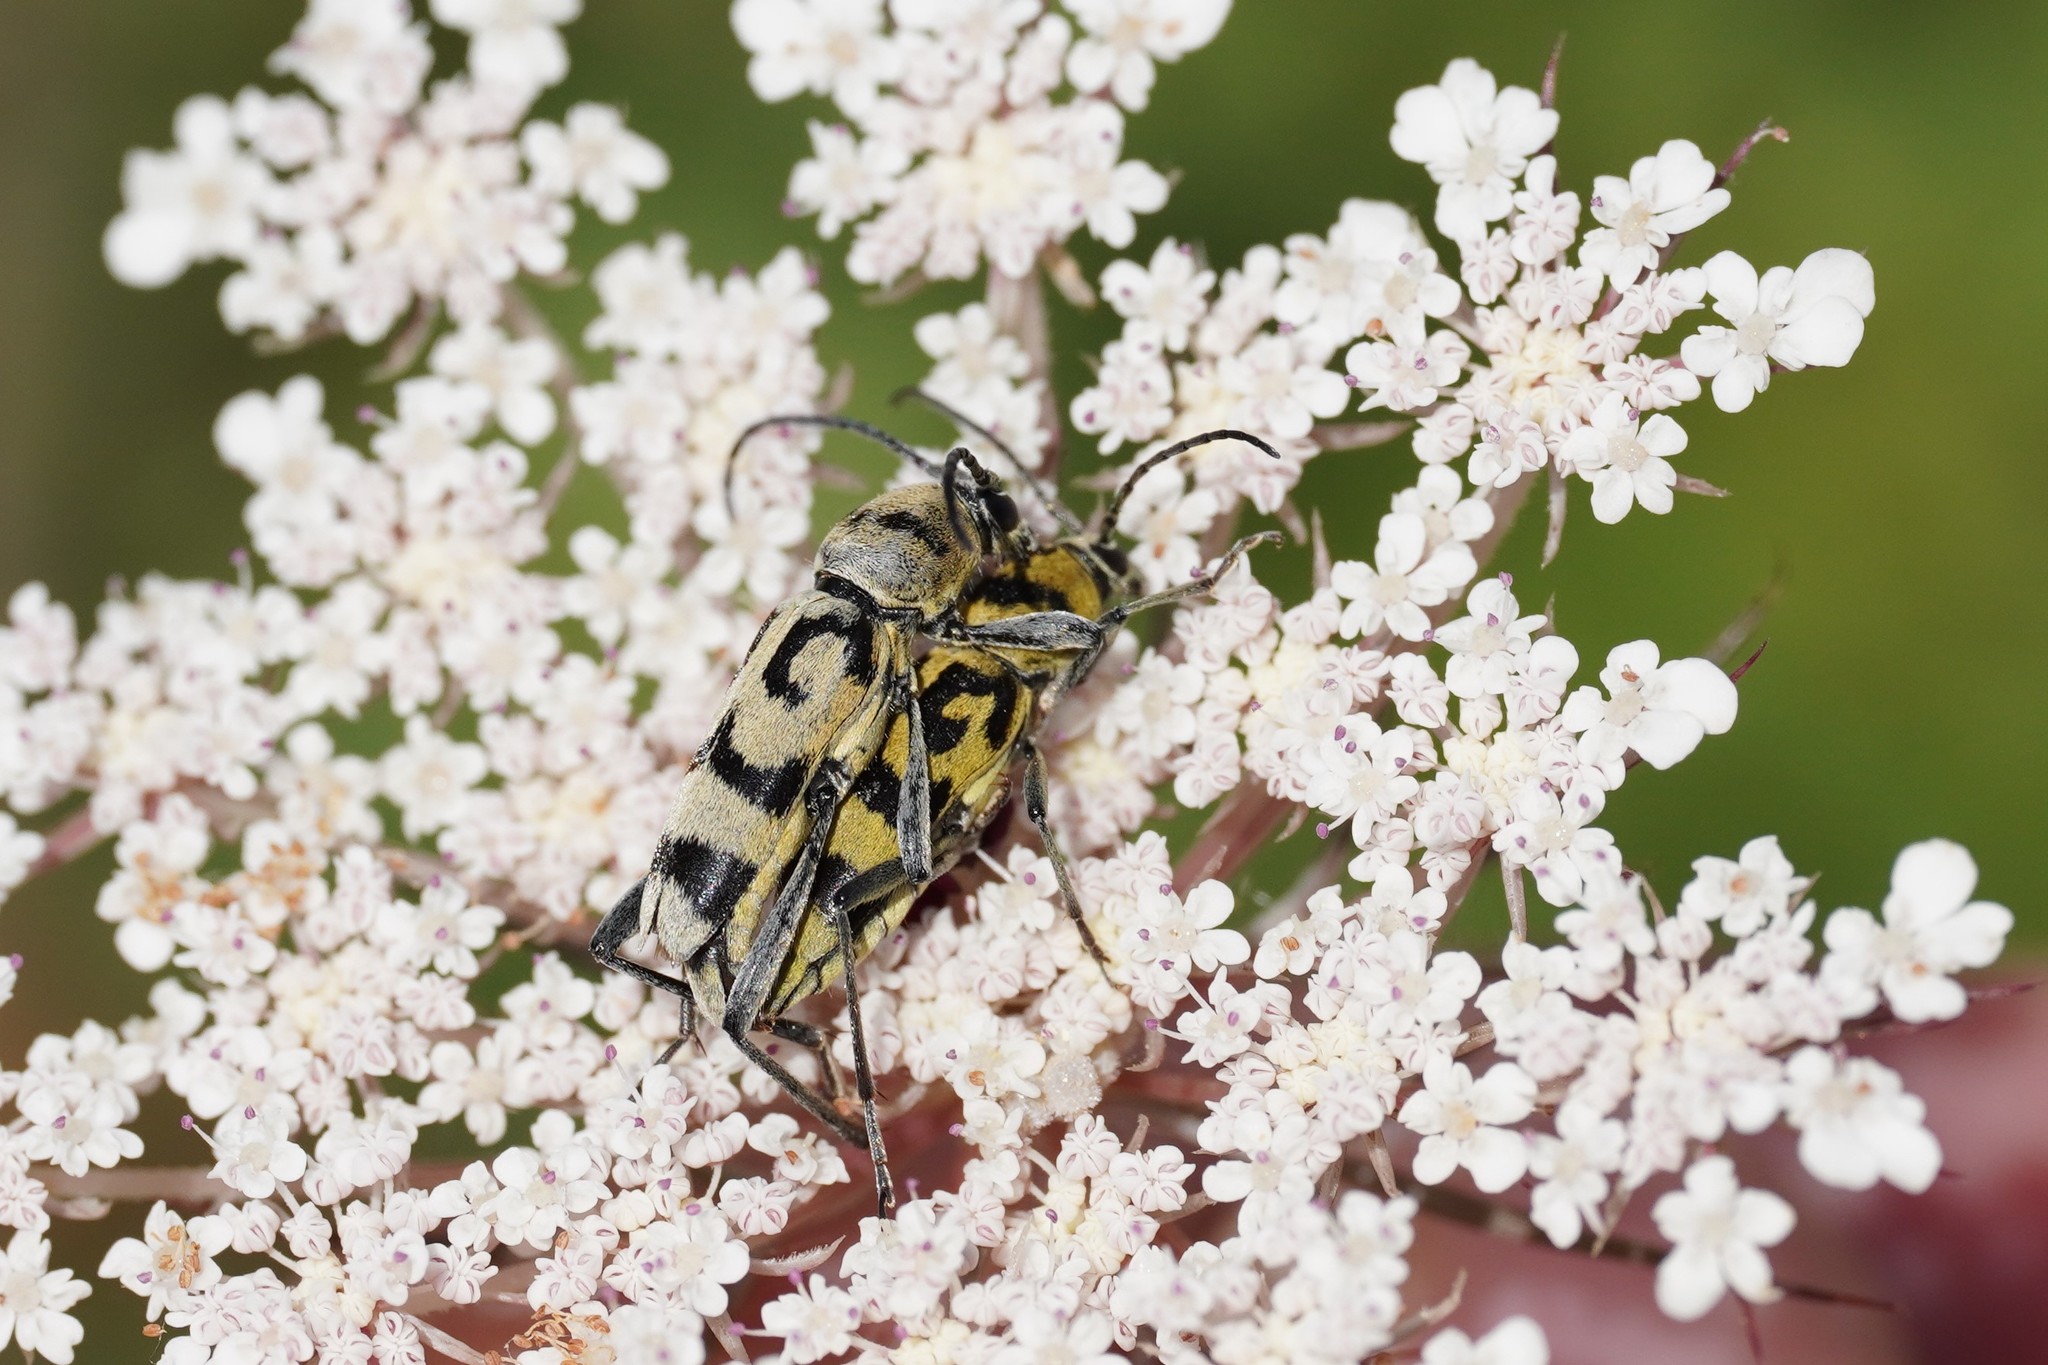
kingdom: Animalia
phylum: Arthropoda
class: Insecta
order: Coleoptera
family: Cerambycidae
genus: Chlorophorus
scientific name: Chlorophorus varius
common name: Grape wood borer
